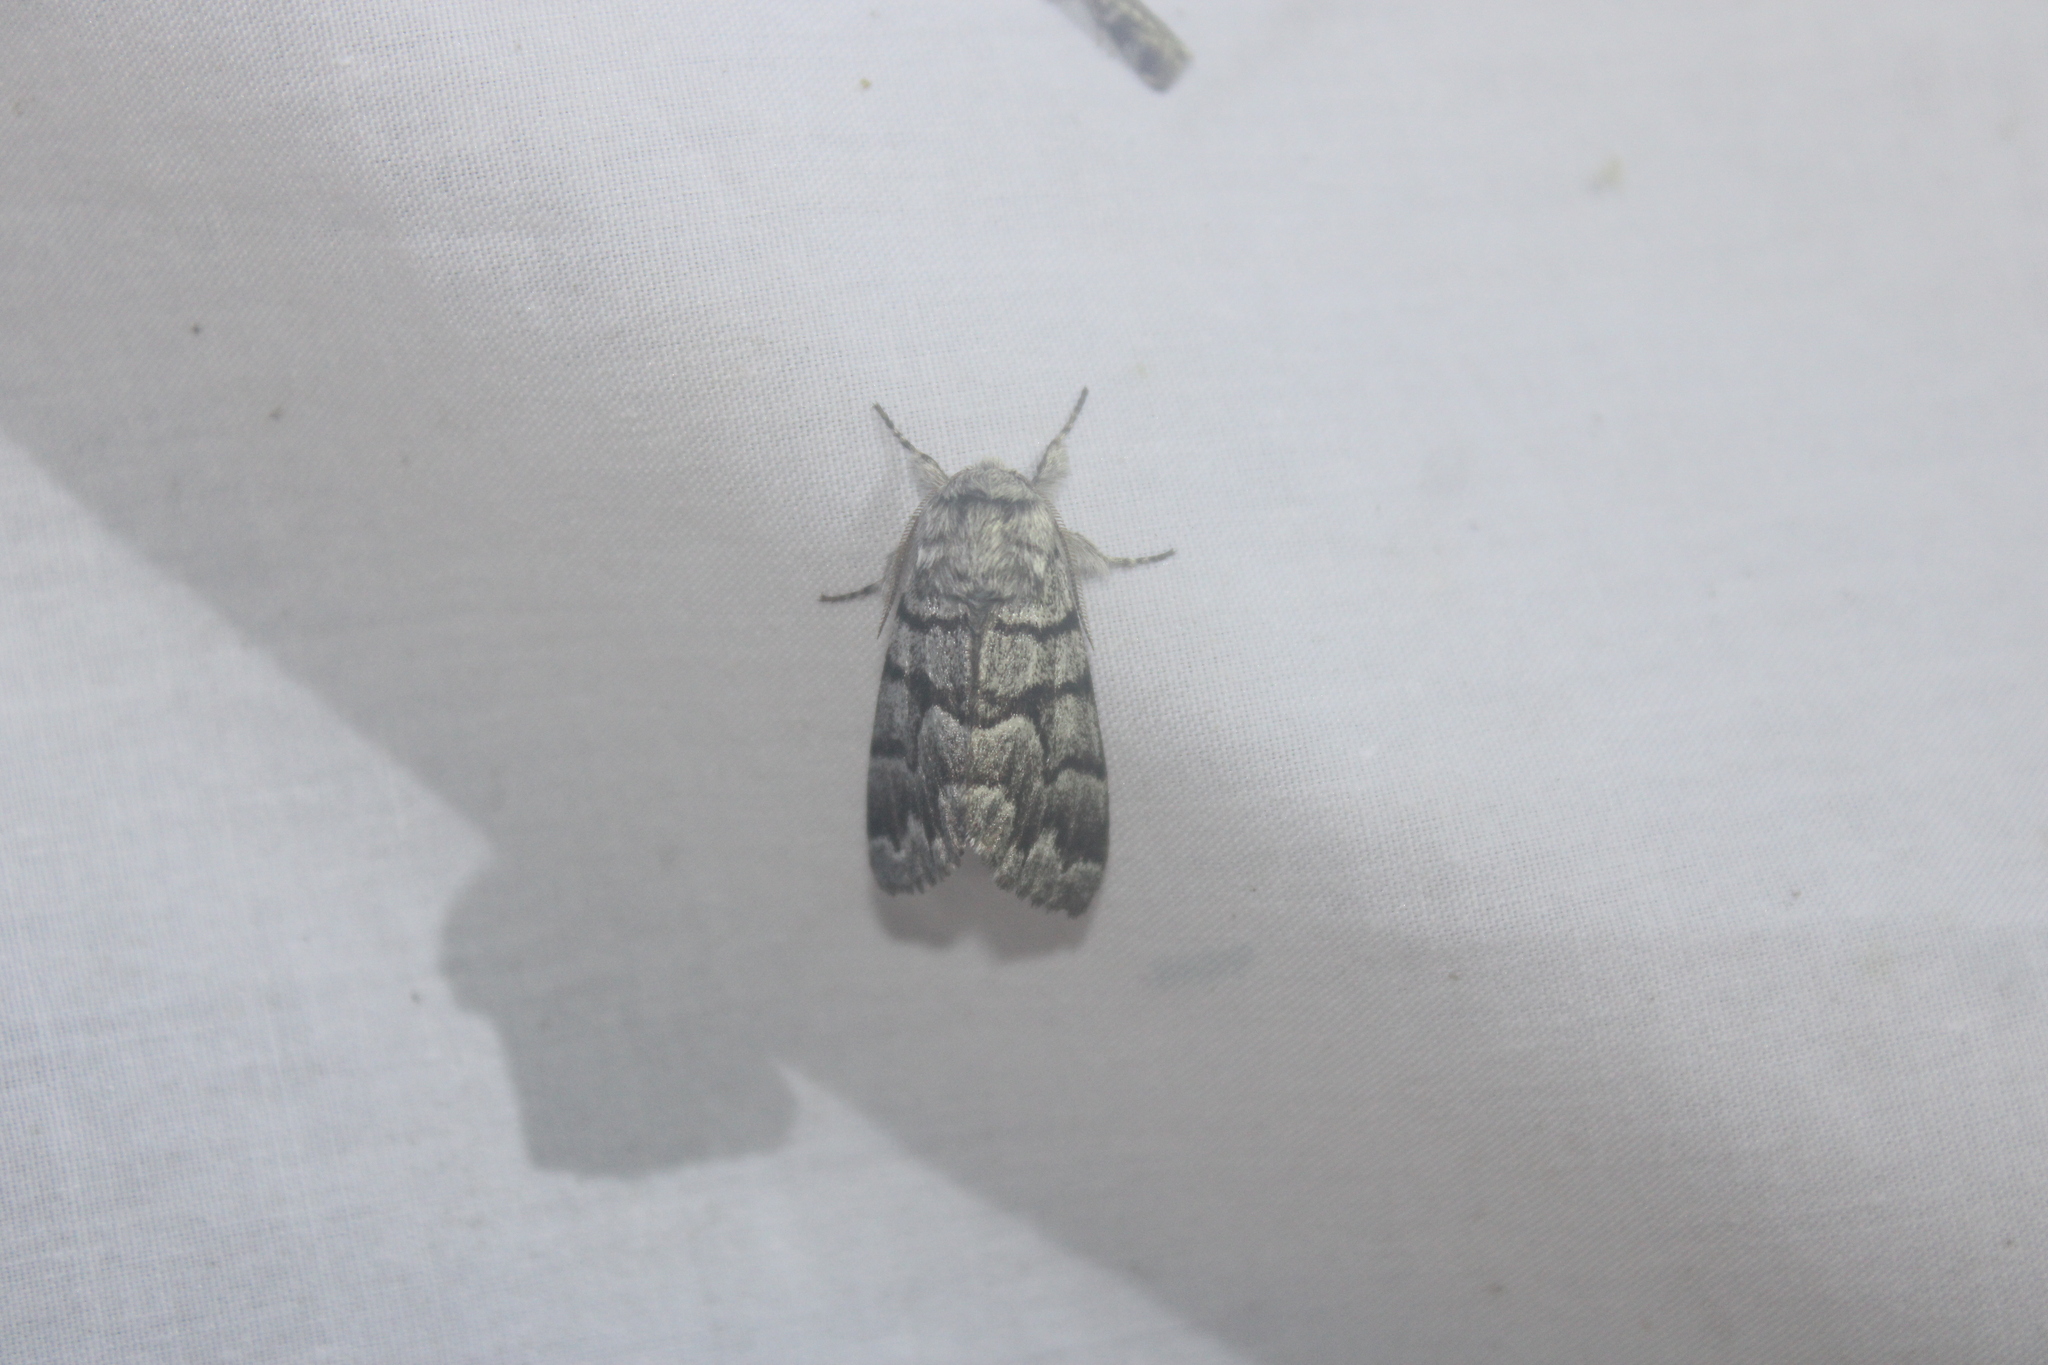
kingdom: Animalia
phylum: Arthropoda
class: Insecta
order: Lepidoptera
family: Noctuidae
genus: Panthea
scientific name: Panthea furcilla
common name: Eastern panthea moth
